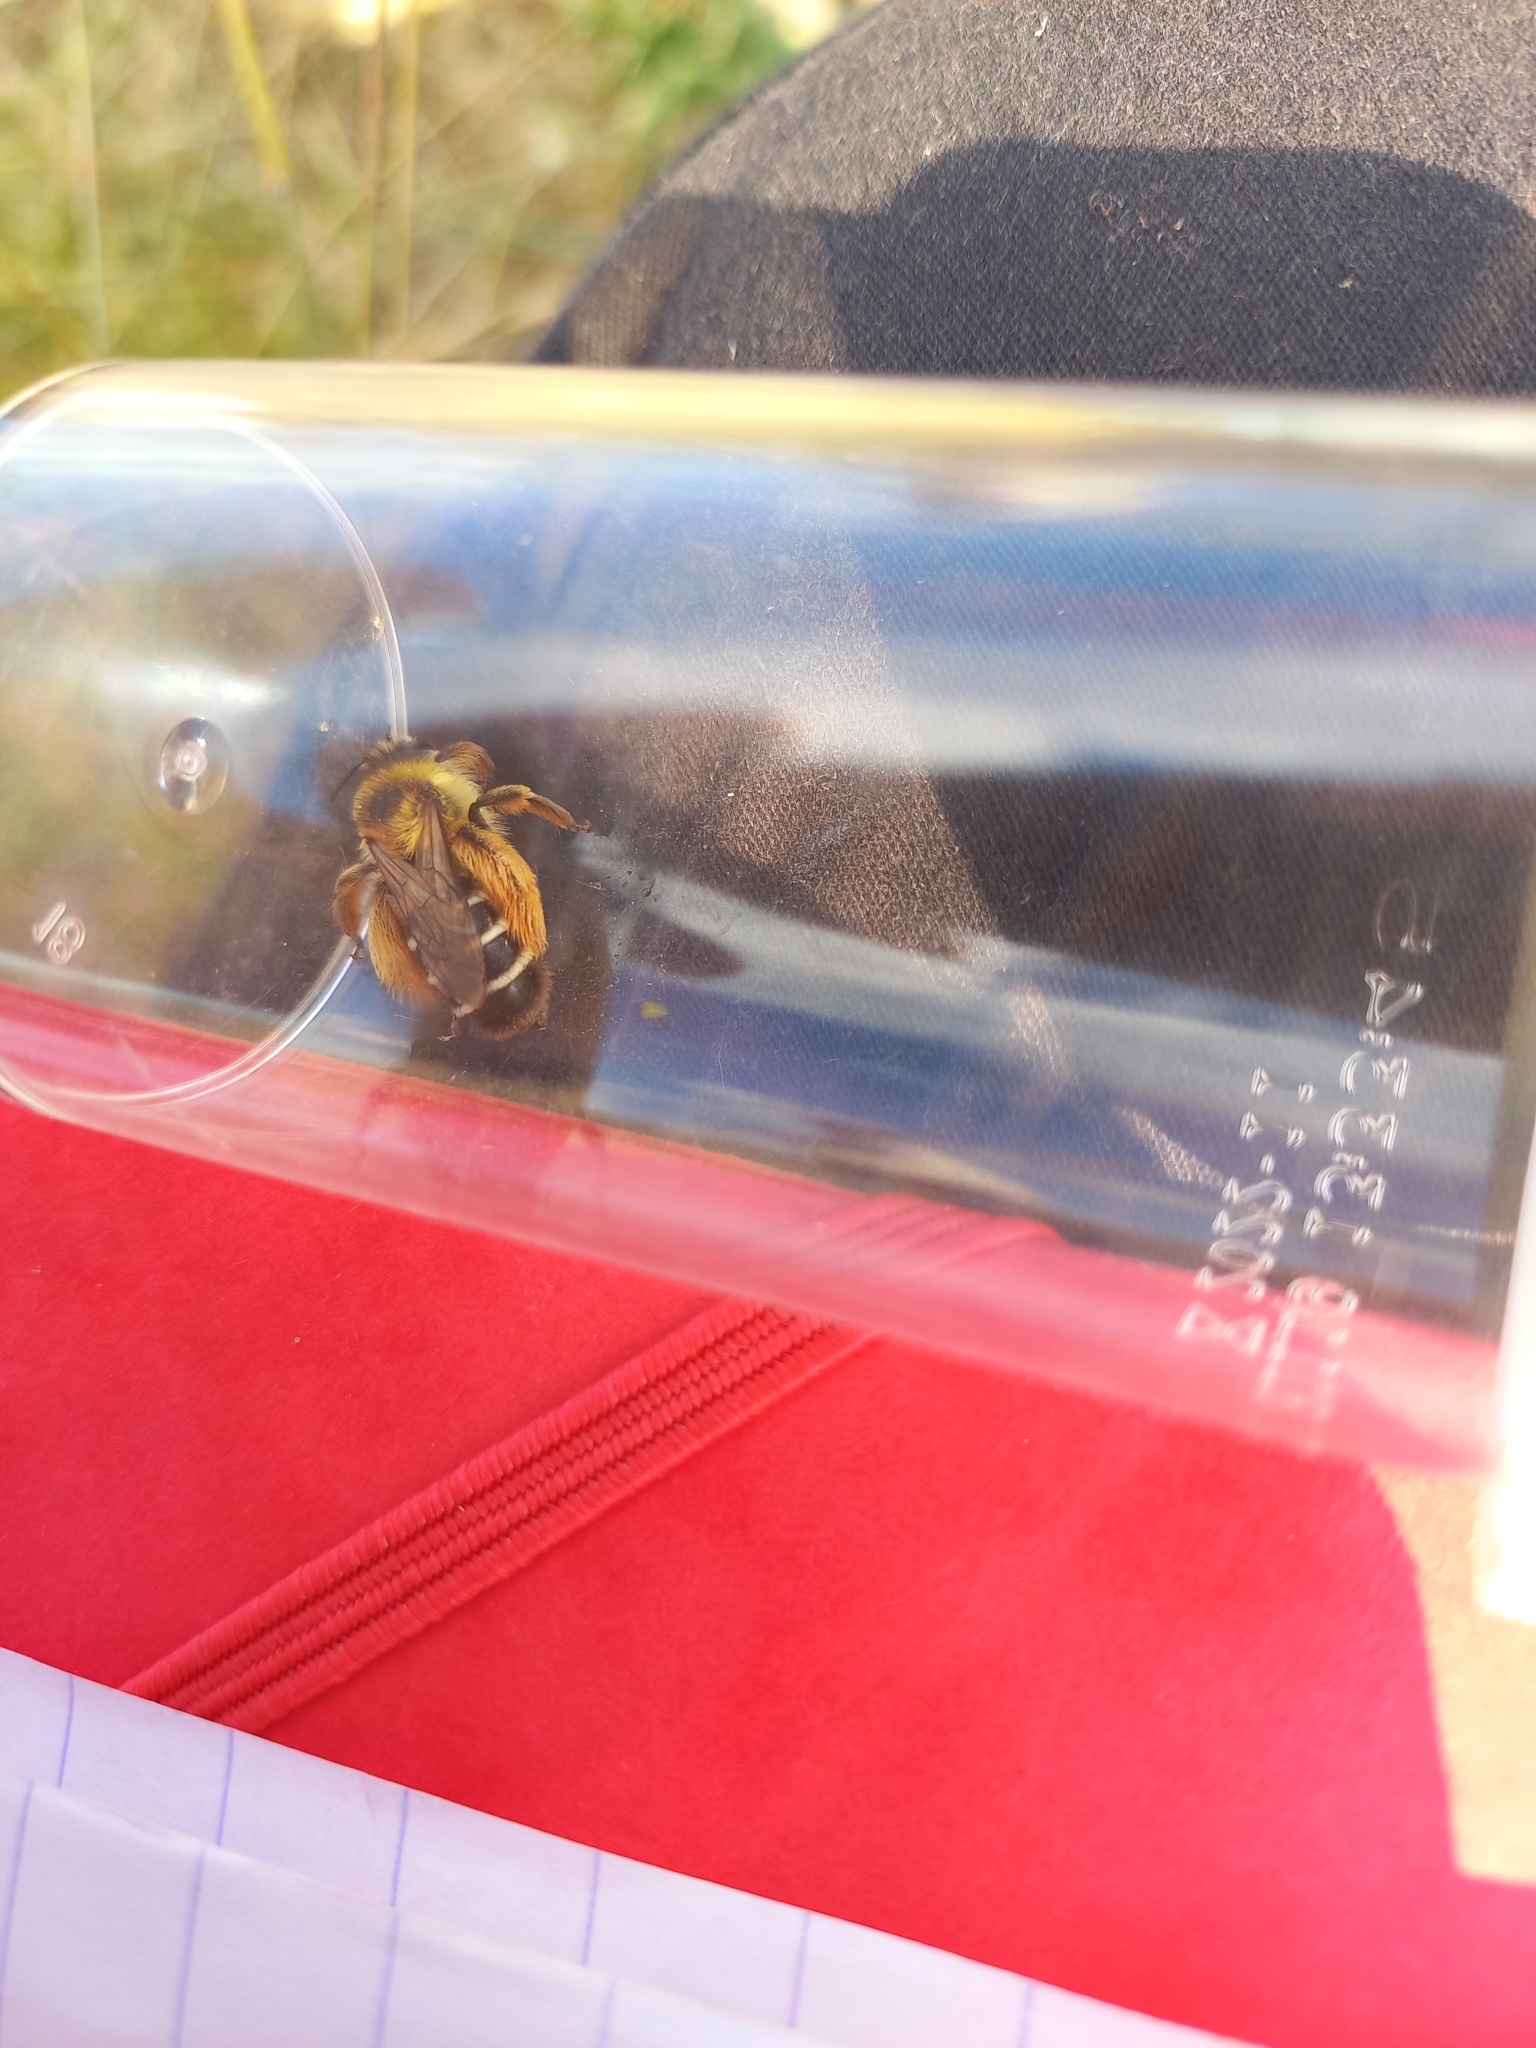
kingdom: Animalia
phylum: Arthropoda
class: Insecta
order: Hymenoptera
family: Melittidae
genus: Dasypoda
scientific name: Dasypoda hirtipes
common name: Pantaloon bee
